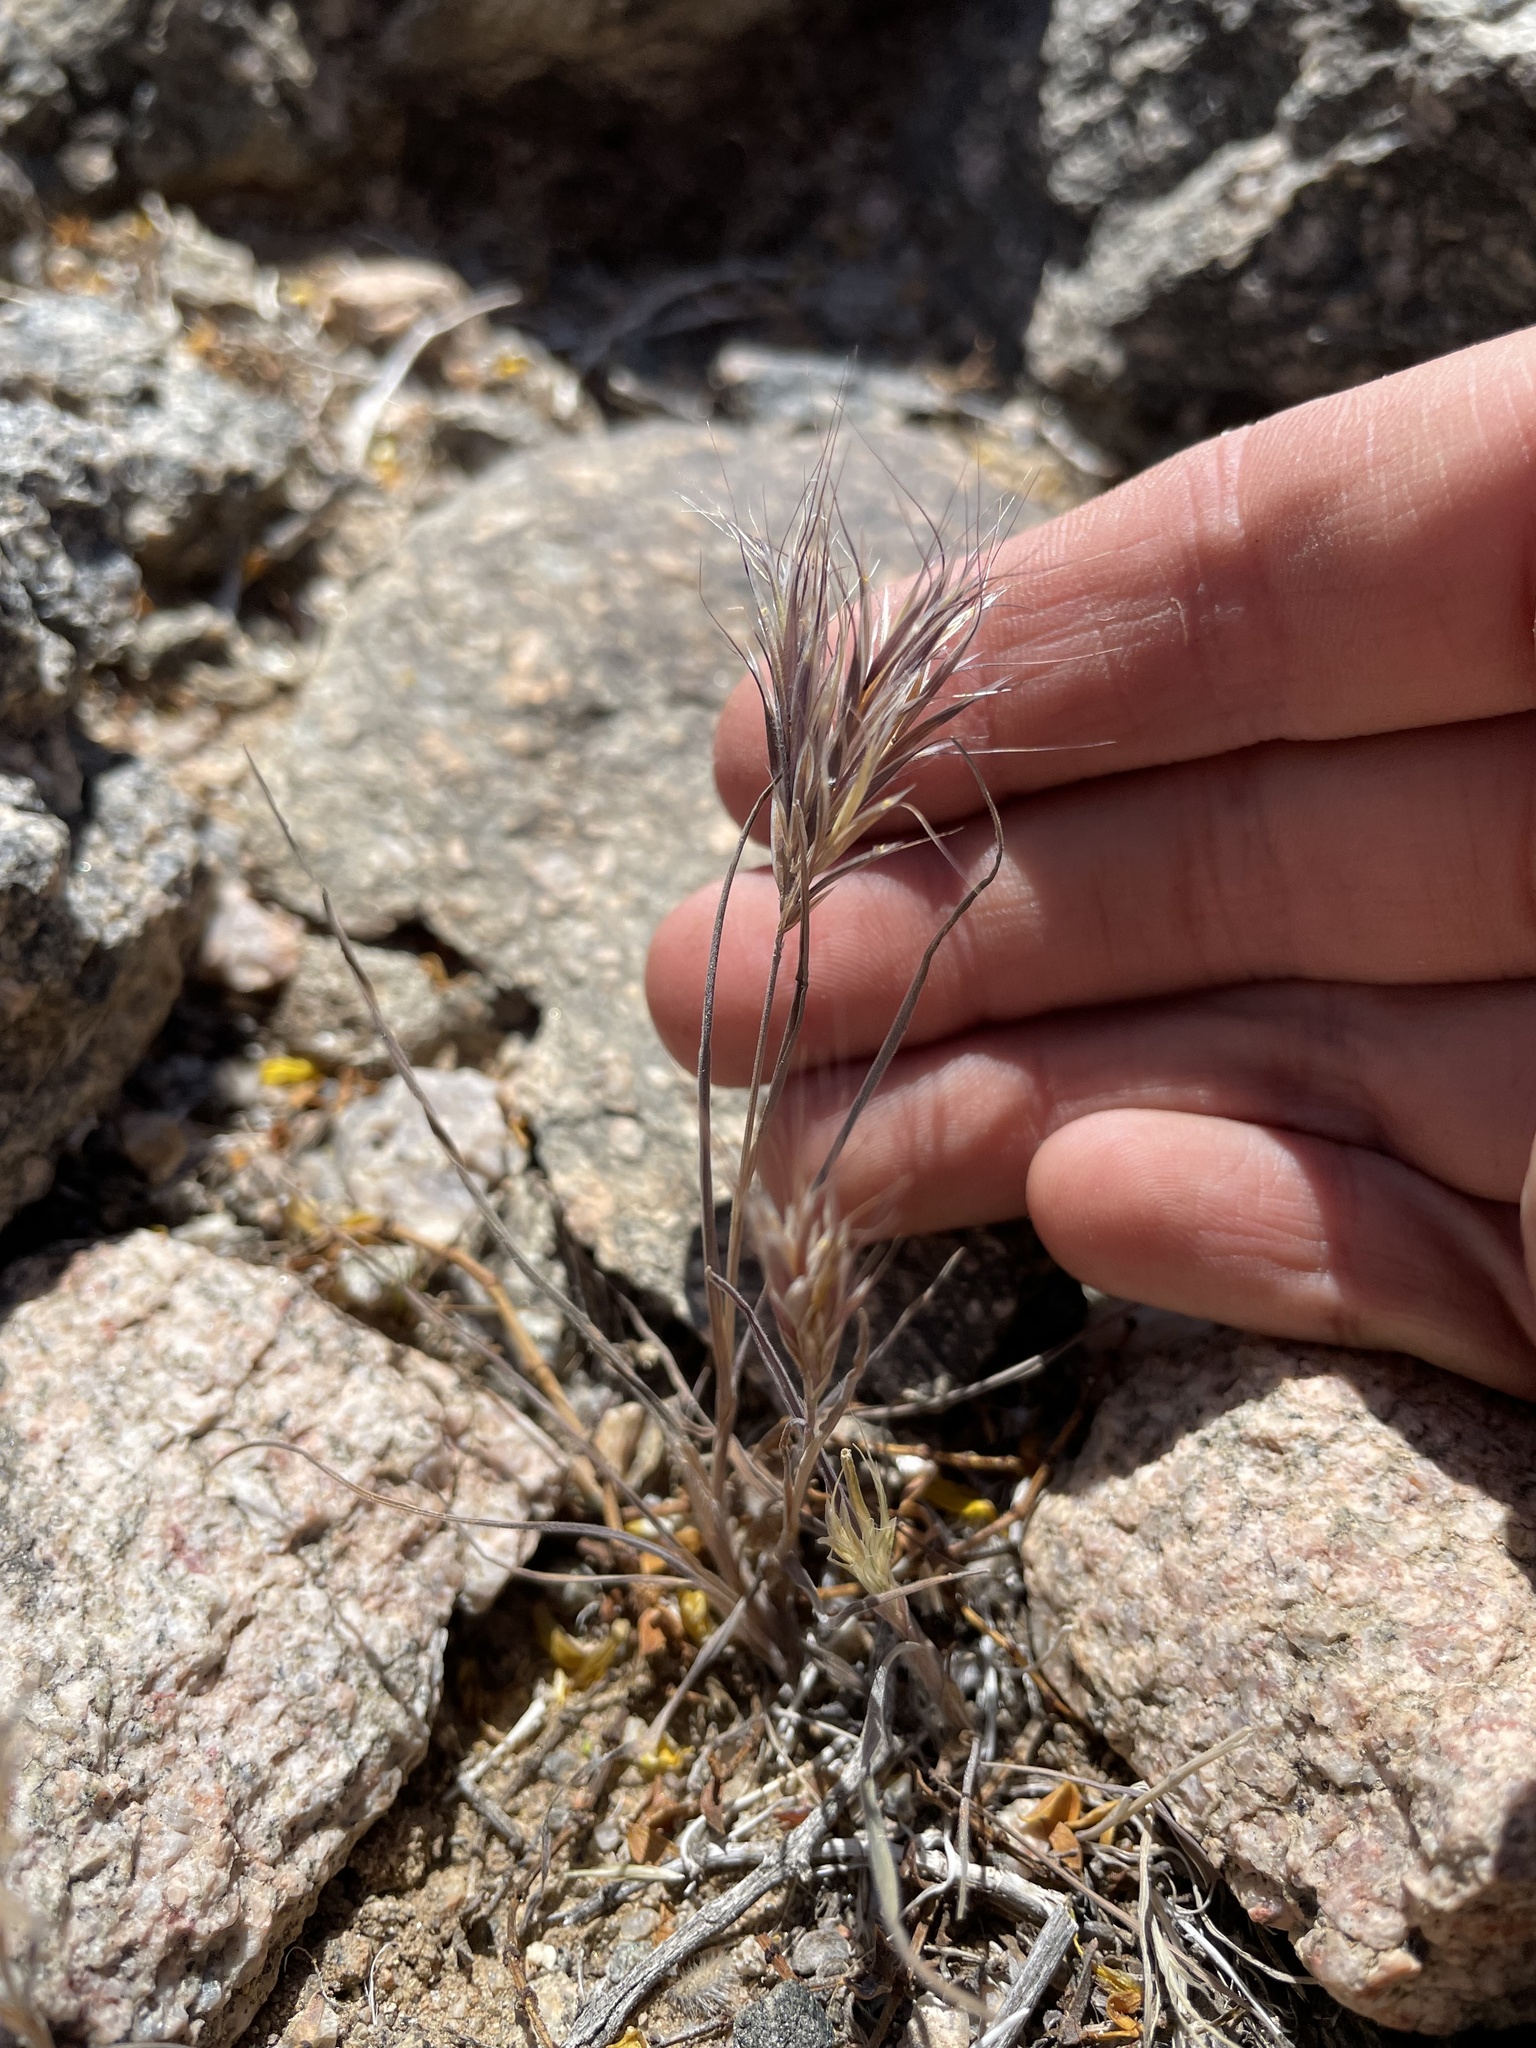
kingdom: Plantae
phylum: Tracheophyta
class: Liliopsida
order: Poales
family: Poaceae
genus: Bromus
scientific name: Bromus rubens
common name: Red brome
